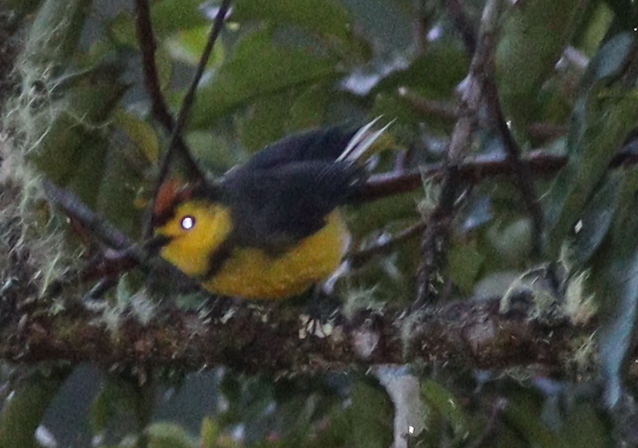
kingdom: Animalia
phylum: Chordata
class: Aves
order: Passeriformes
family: Parulidae
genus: Myioborus
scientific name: Myioborus torquatus
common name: Collared whitestart
